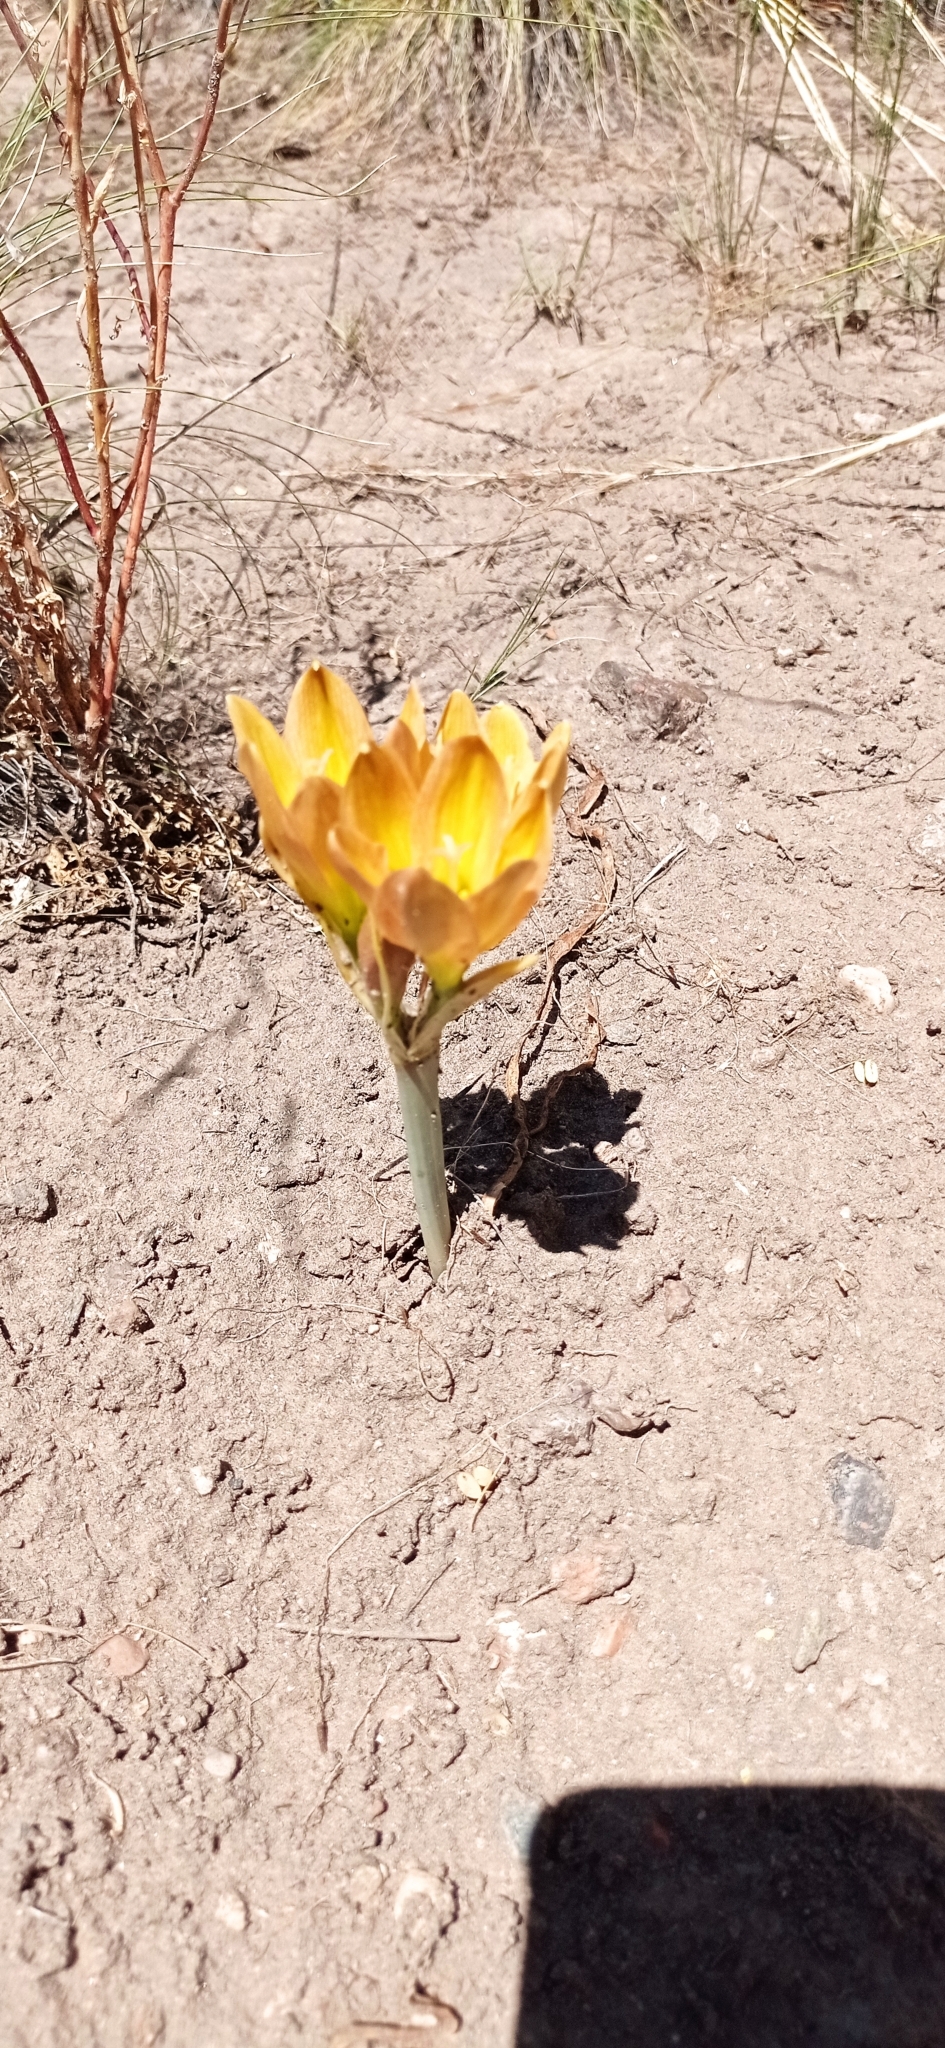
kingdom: Plantae
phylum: Tracheophyta
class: Liliopsida
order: Asparagales
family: Amaryllidaceae
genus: Zephyranthes
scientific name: Zephyranthes gilliesiana
